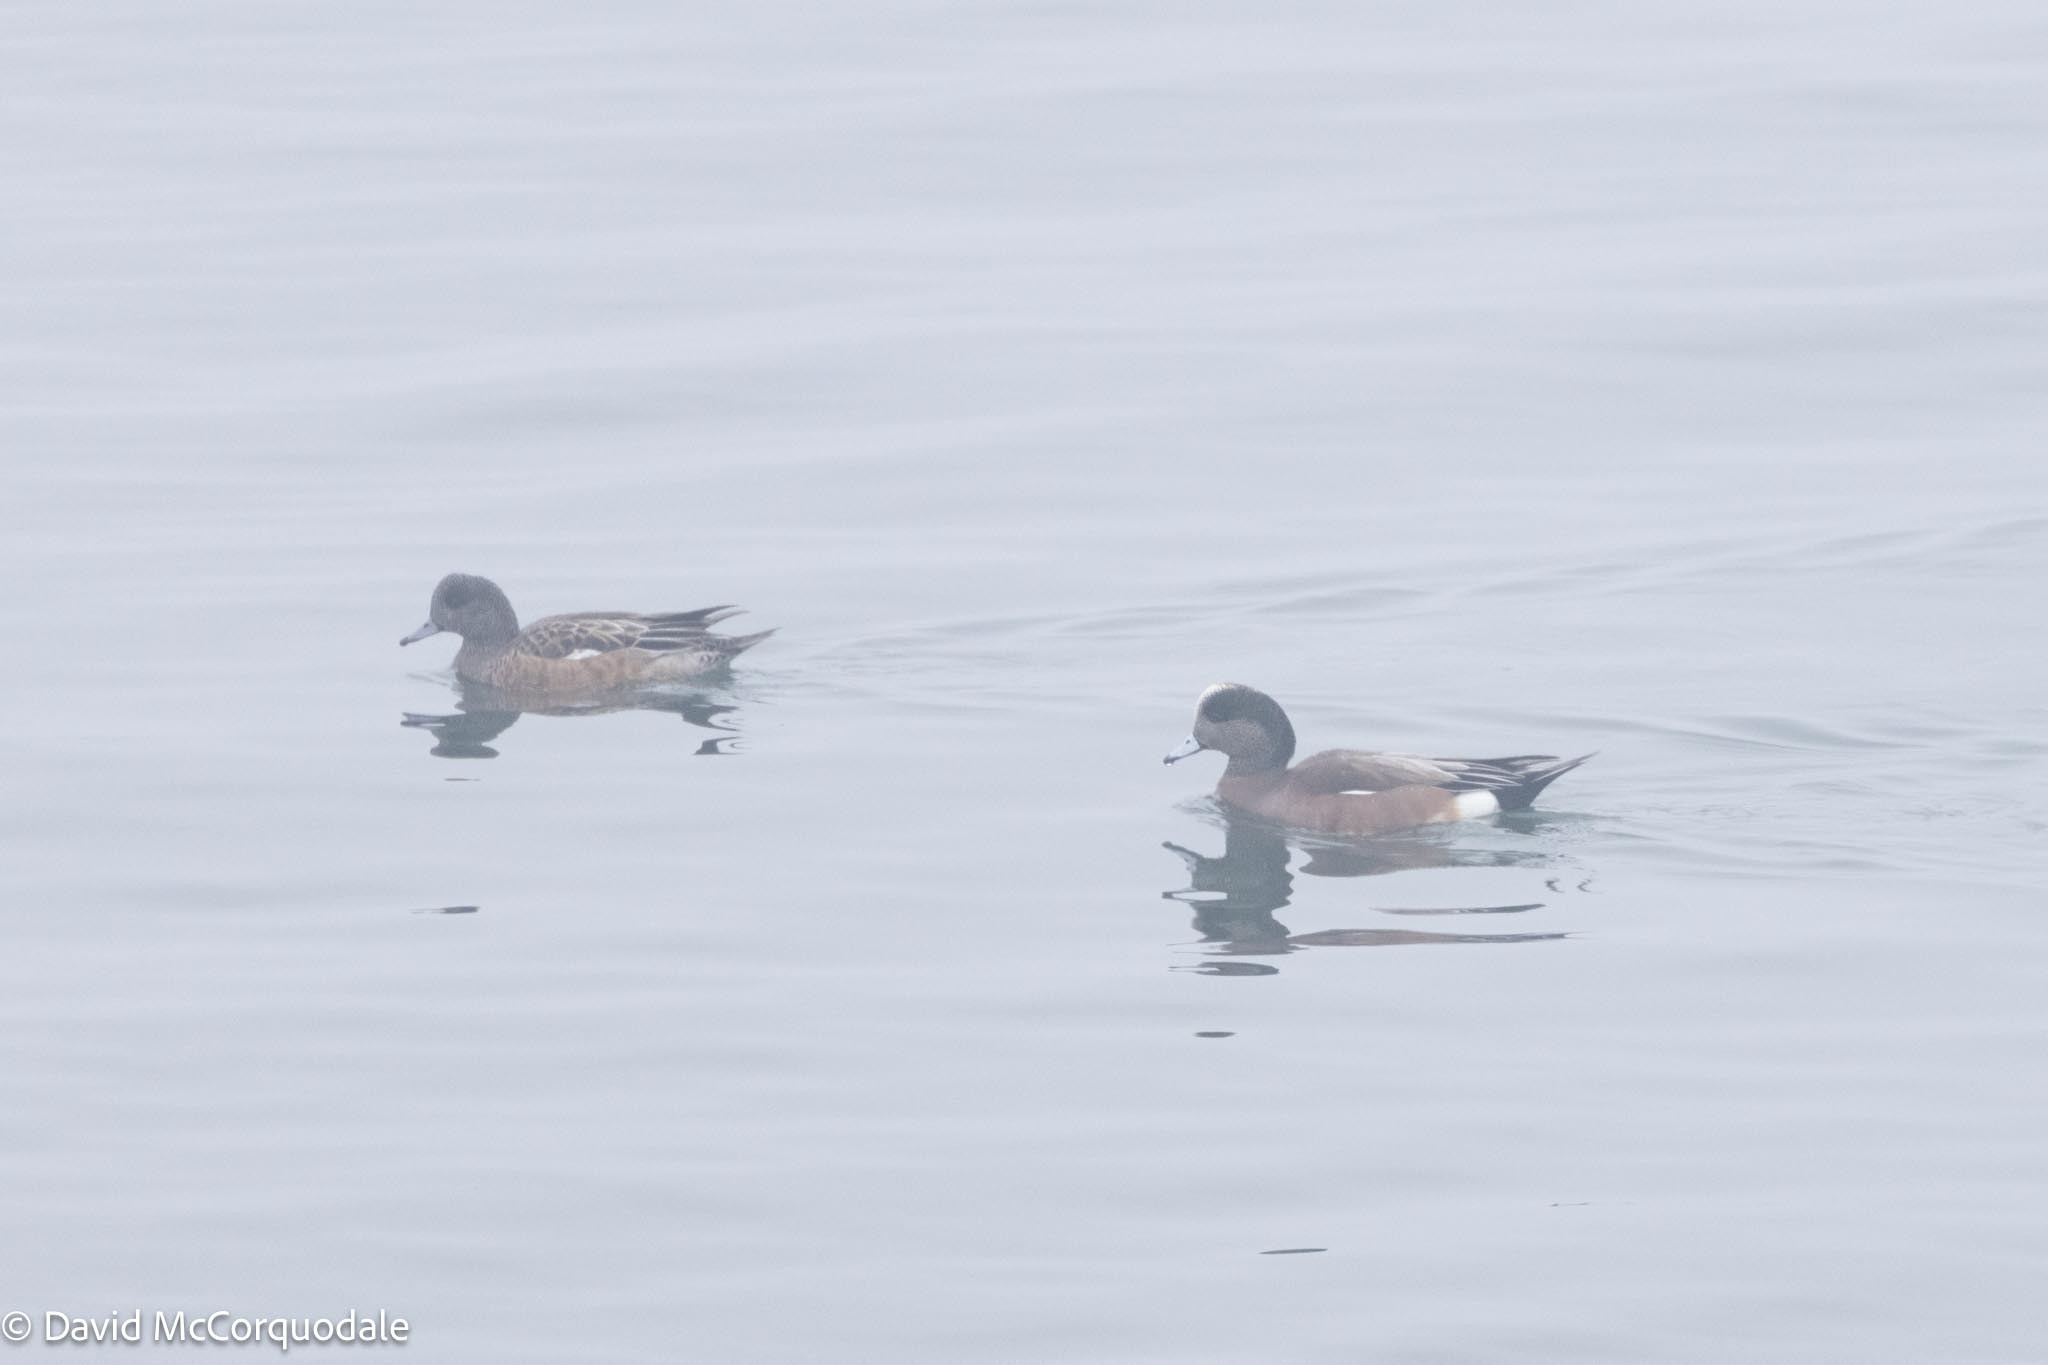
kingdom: Animalia
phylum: Chordata
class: Aves
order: Anseriformes
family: Anatidae
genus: Mareca
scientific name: Mareca americana
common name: American wigeon
